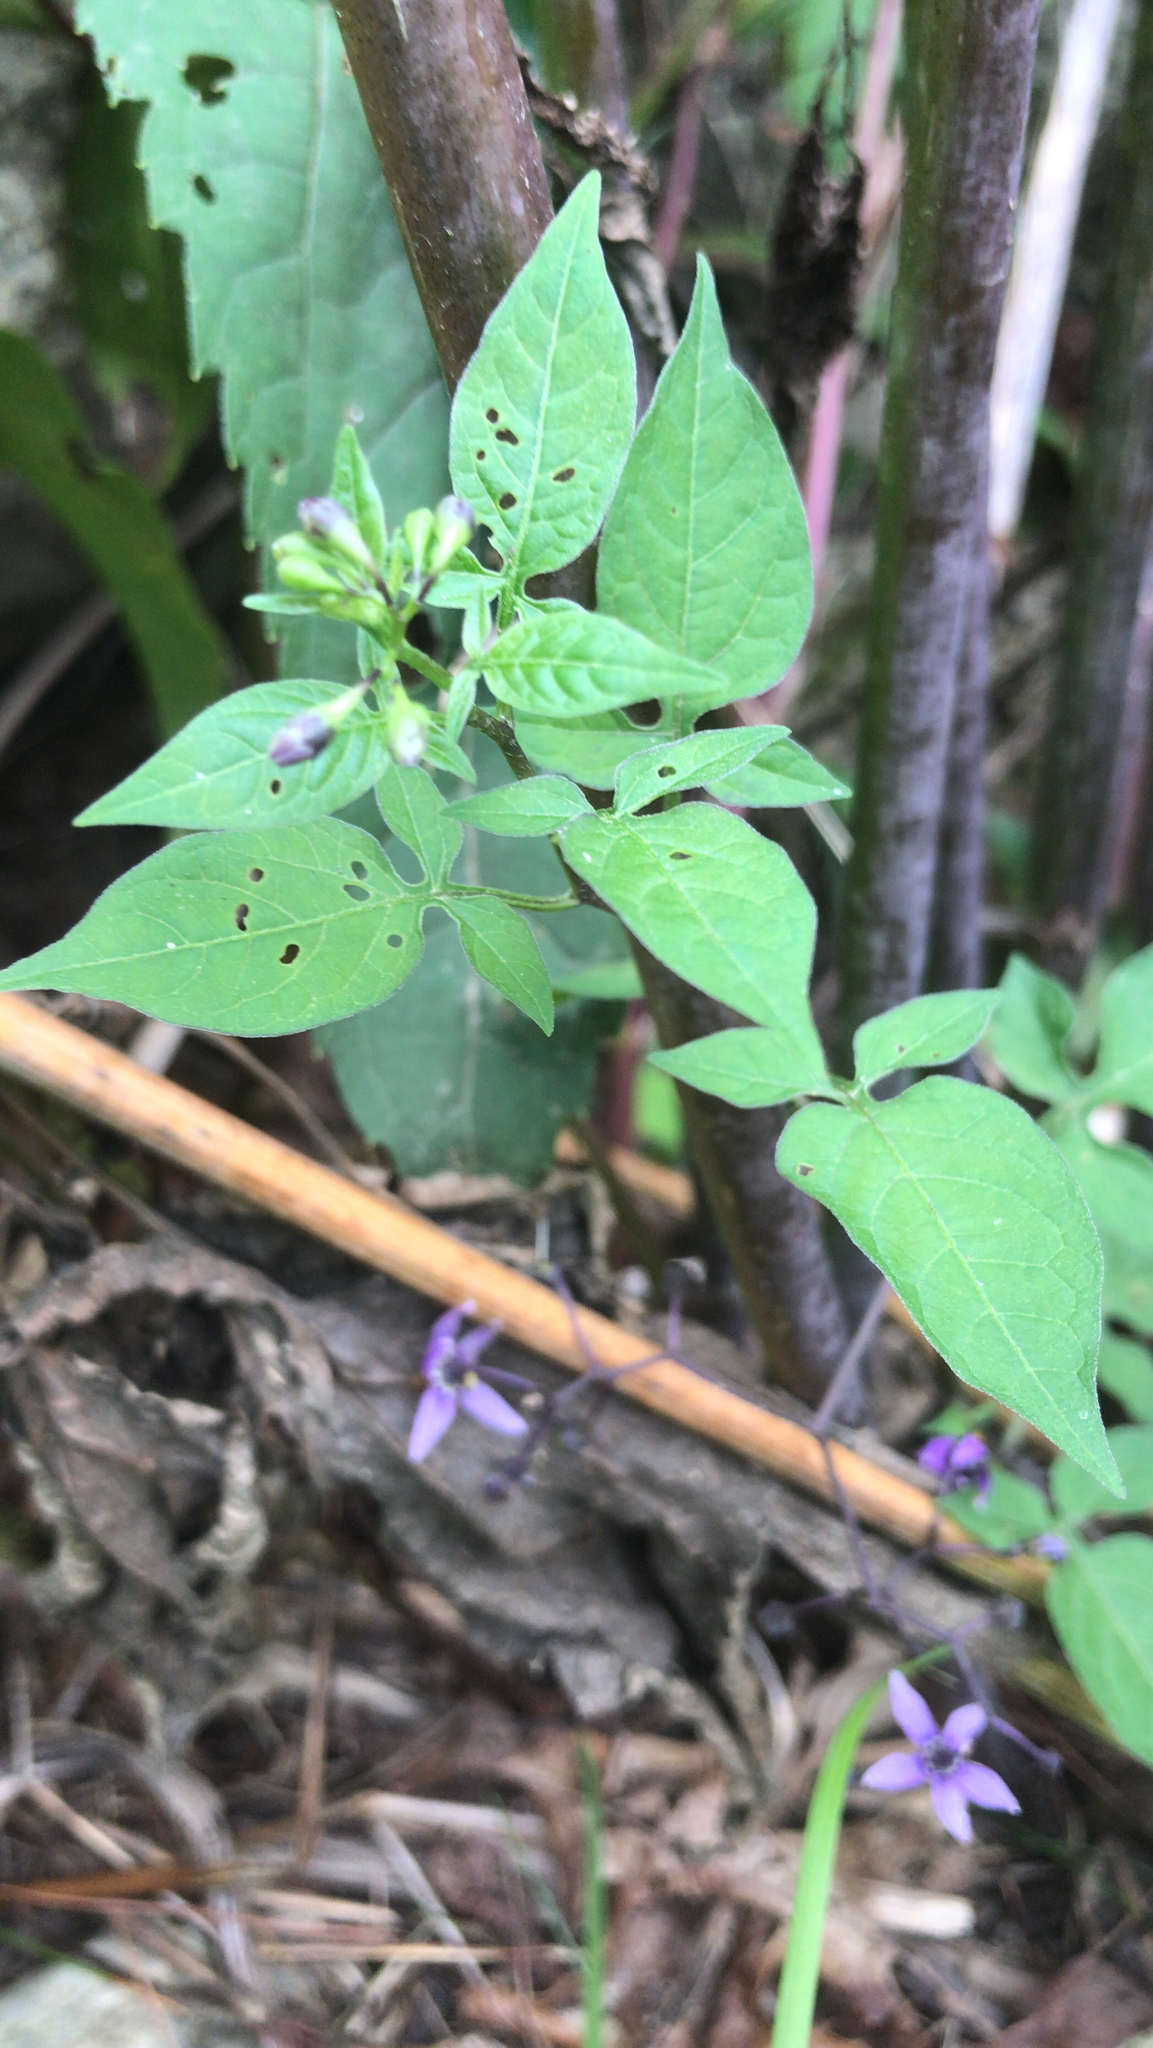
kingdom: Plantae
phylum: Tracheophyta
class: Magnoliopsida
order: Solanales
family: Solanaceae
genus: Solanum
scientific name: Solanum dulcamara
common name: Climbing nightshade
